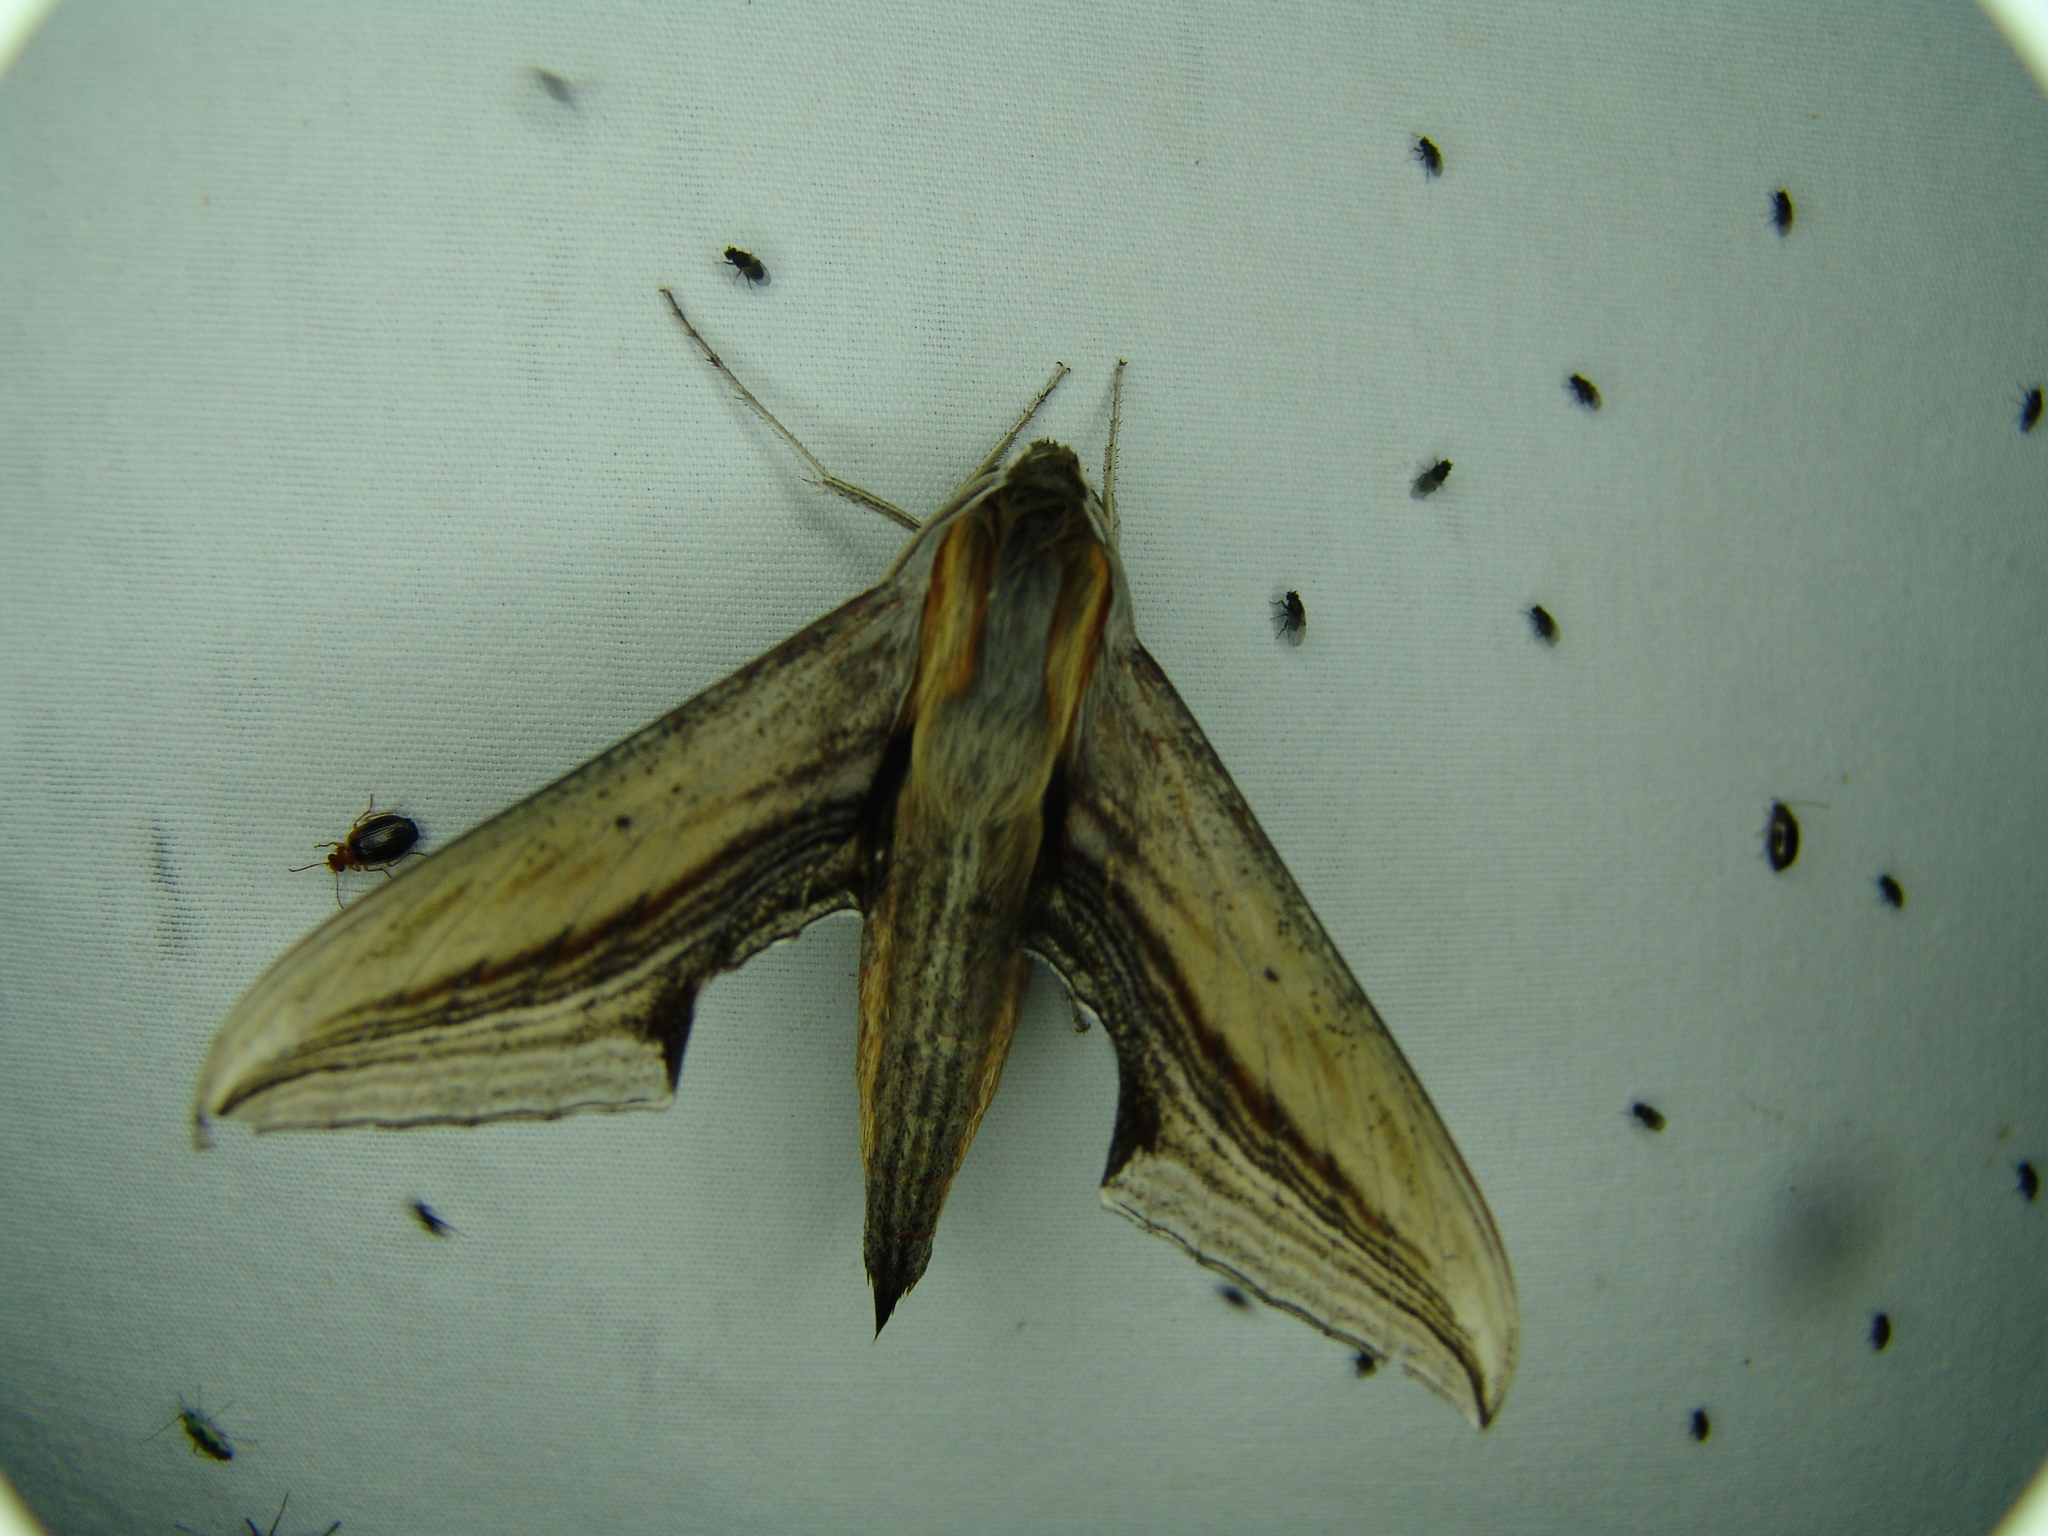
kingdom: Animalia
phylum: Arthropoda
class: Insecta
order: Lepidoptera
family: Sphingidae
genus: Xylophanes
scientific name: Xylophanes falco
